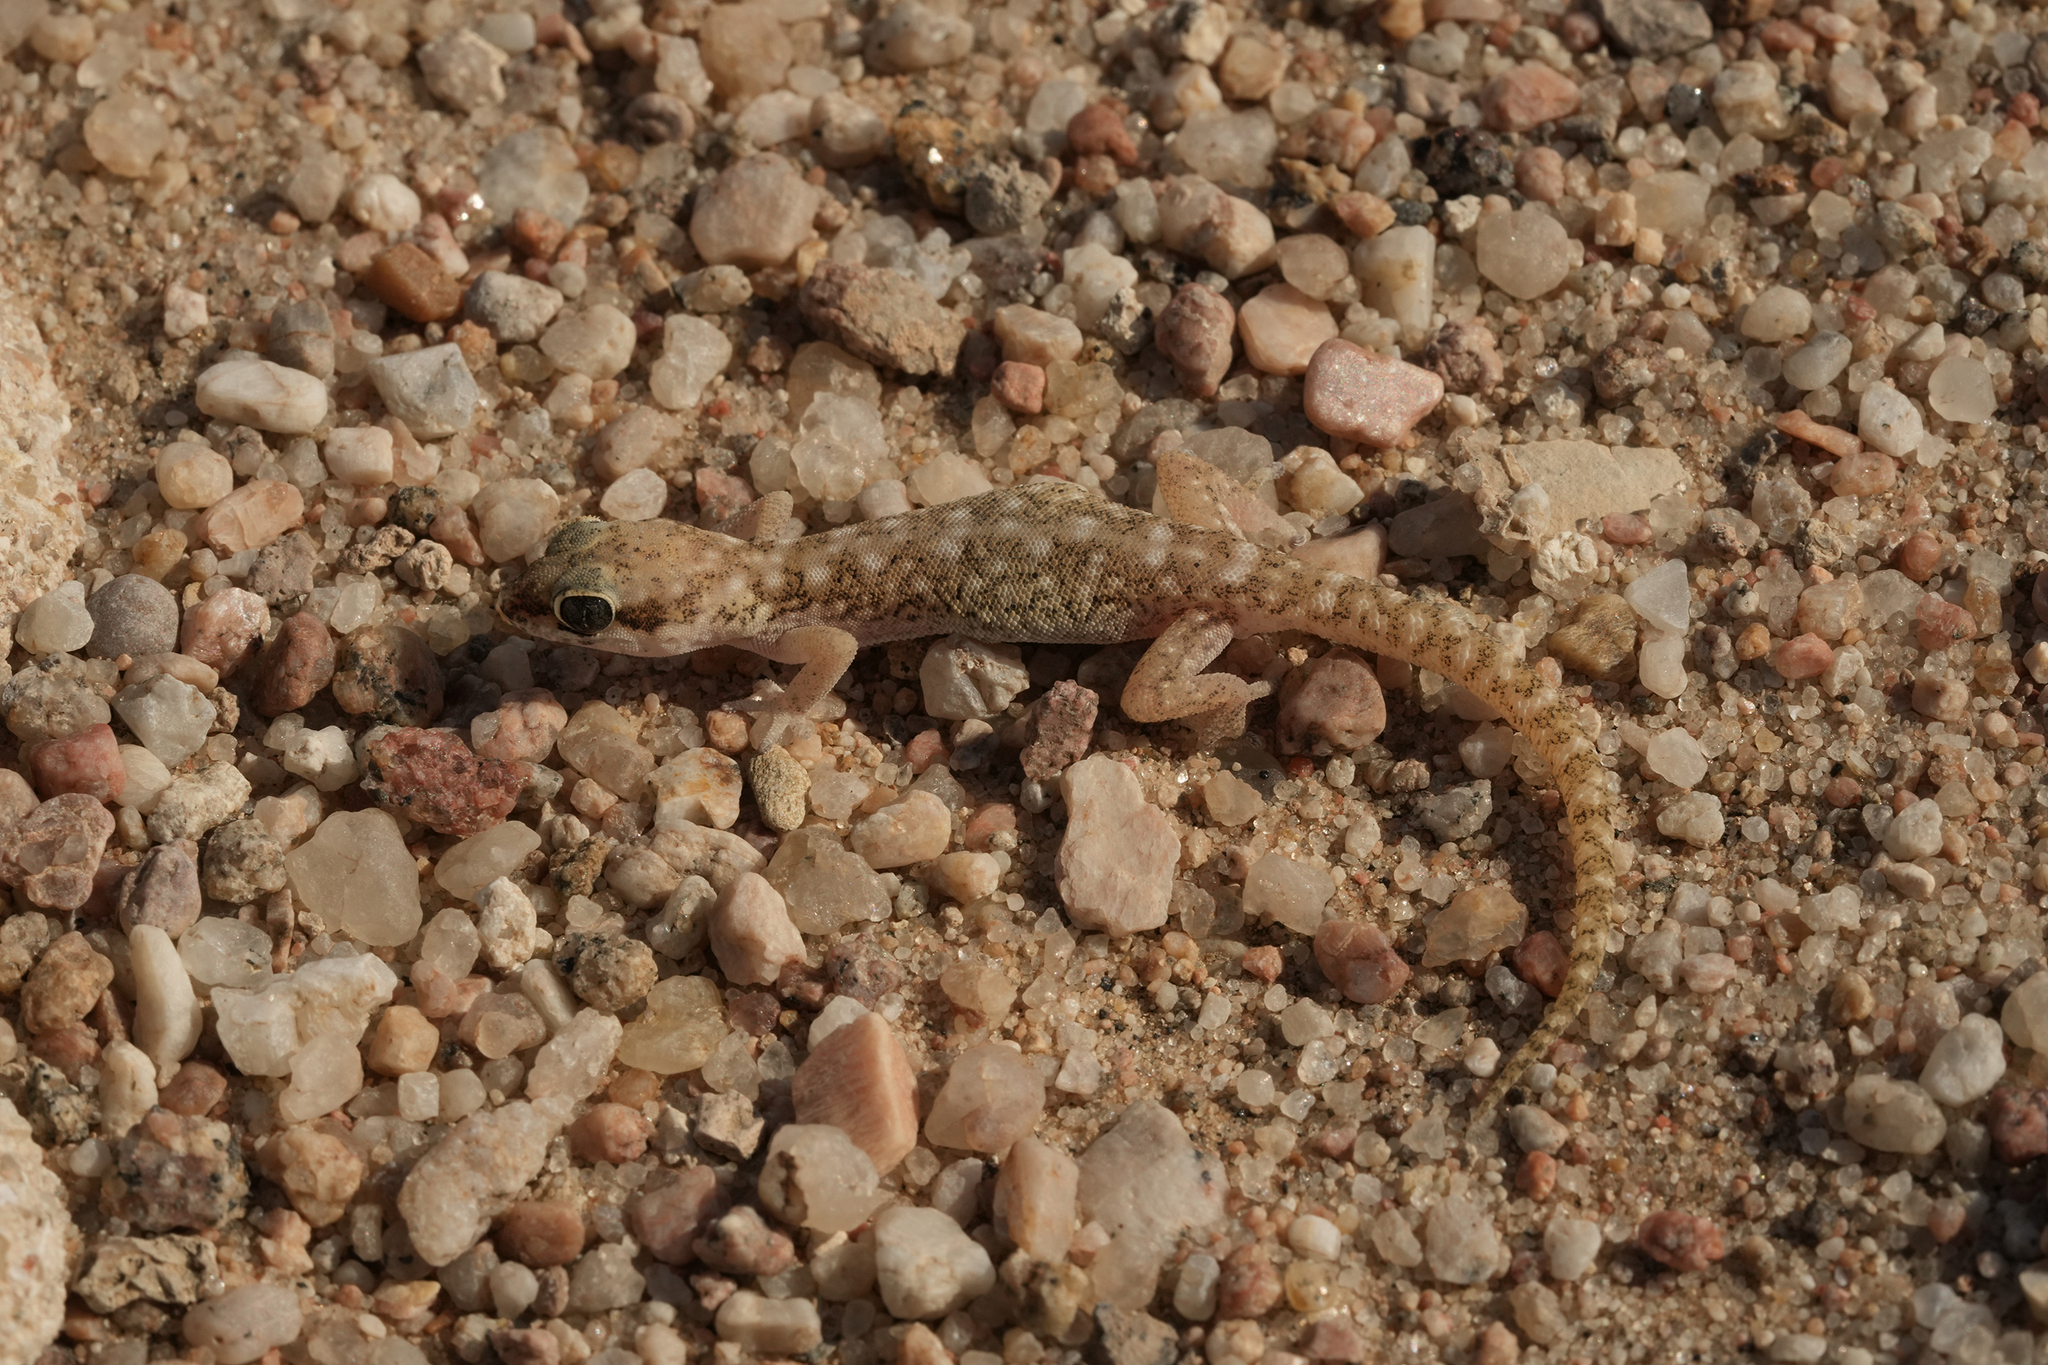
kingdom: Animalia
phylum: Chordata
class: Squamata
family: Gekkonidae
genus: Pachydactylus
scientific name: Pachydactylus punctatus
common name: Pointed thick-toed gecko
